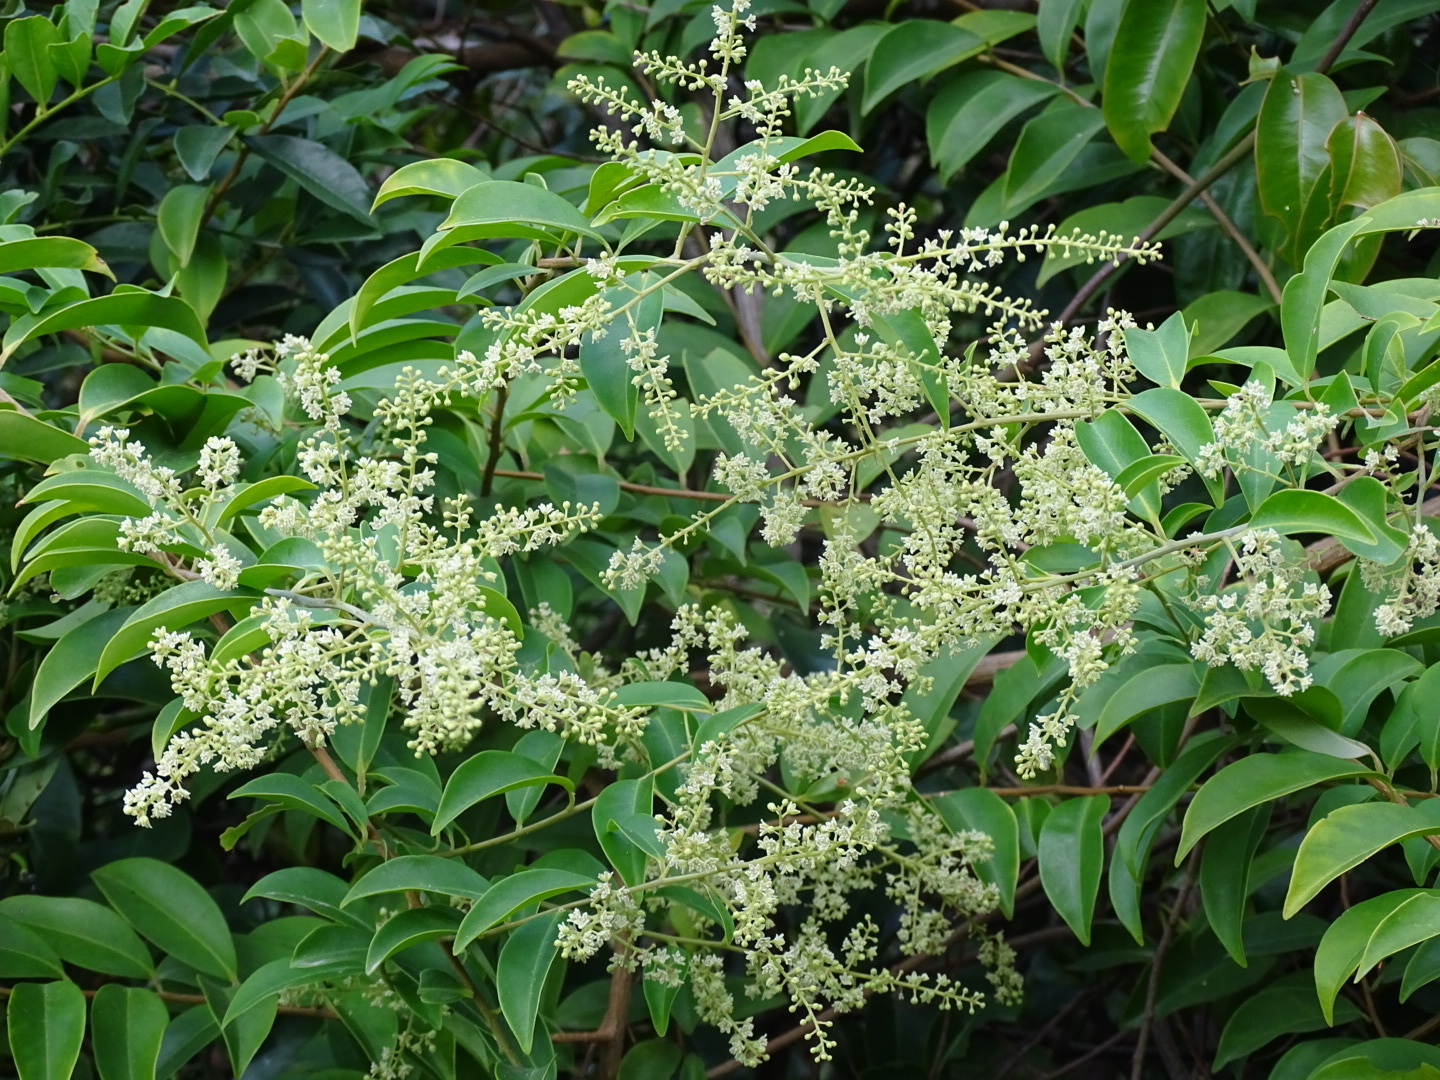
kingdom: Plantae
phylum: Tracheophyta
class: Magnoliopsida
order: Ericales
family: Primulaceae
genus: Embelia
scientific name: Embelia ribes
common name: Vidanga
